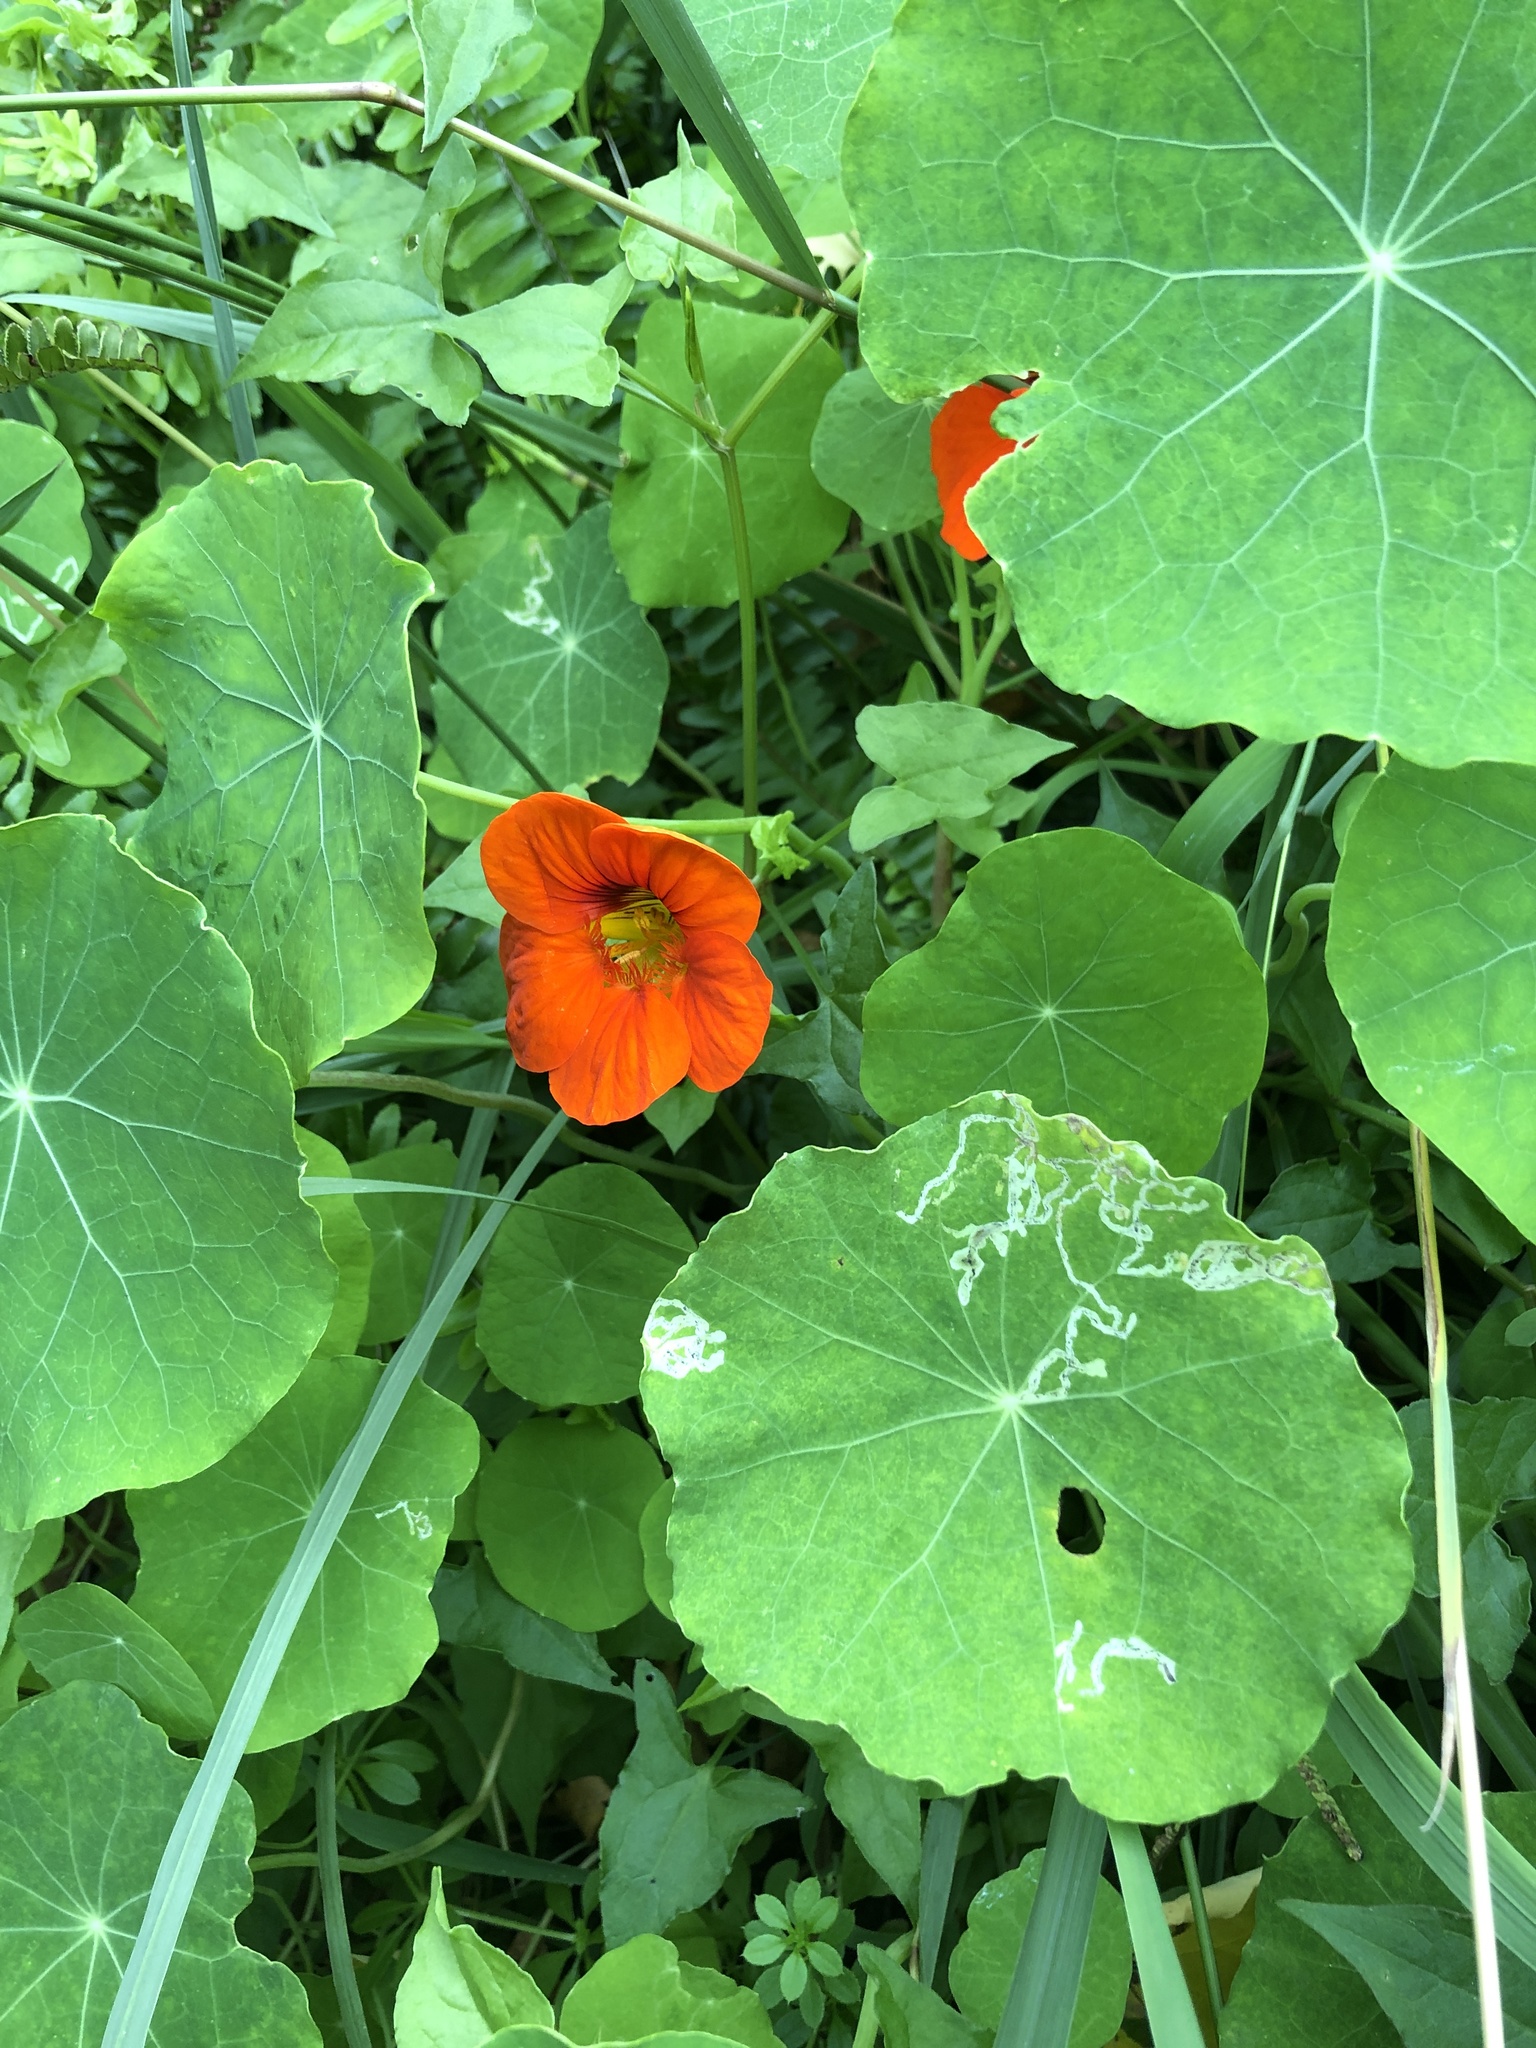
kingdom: Plantae
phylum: Tracheophyta
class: Magnoliopsida
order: Brassicales
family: Tropaeolaceae
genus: Tropaeolum
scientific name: Tropaeolum majus
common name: Nasturtium
